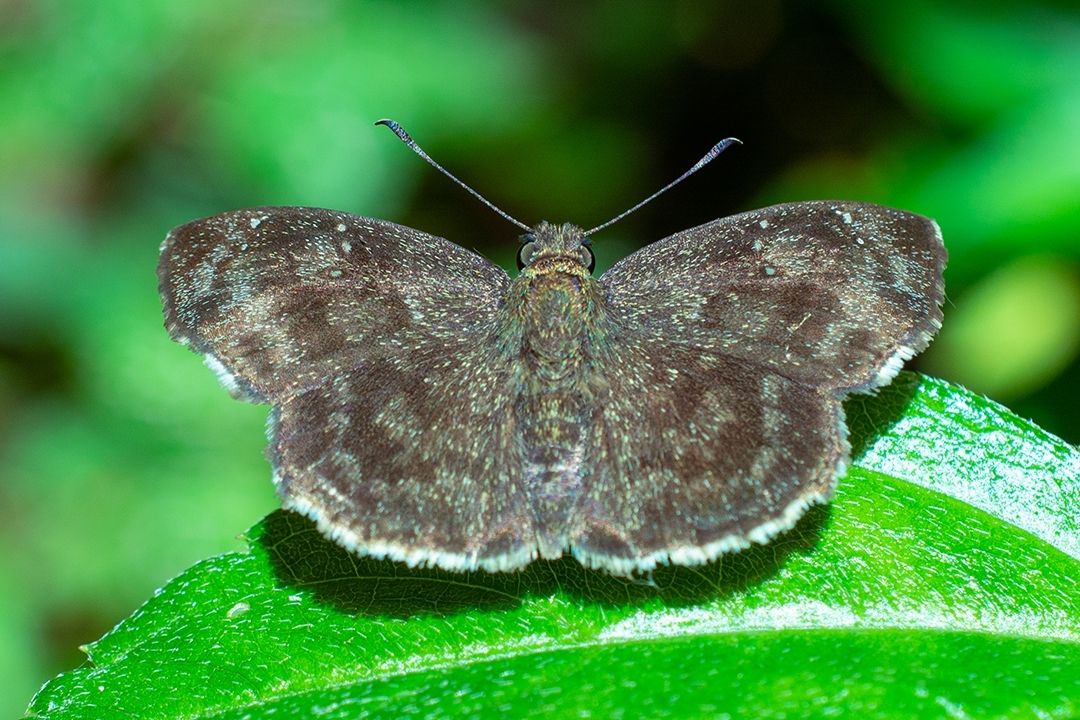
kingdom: Animalia
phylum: Arthropoda
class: Insecta
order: Lepidoptera
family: Hesperiidae
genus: Sarangesa
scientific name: Sarangesa dasahara
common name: Common small flat
